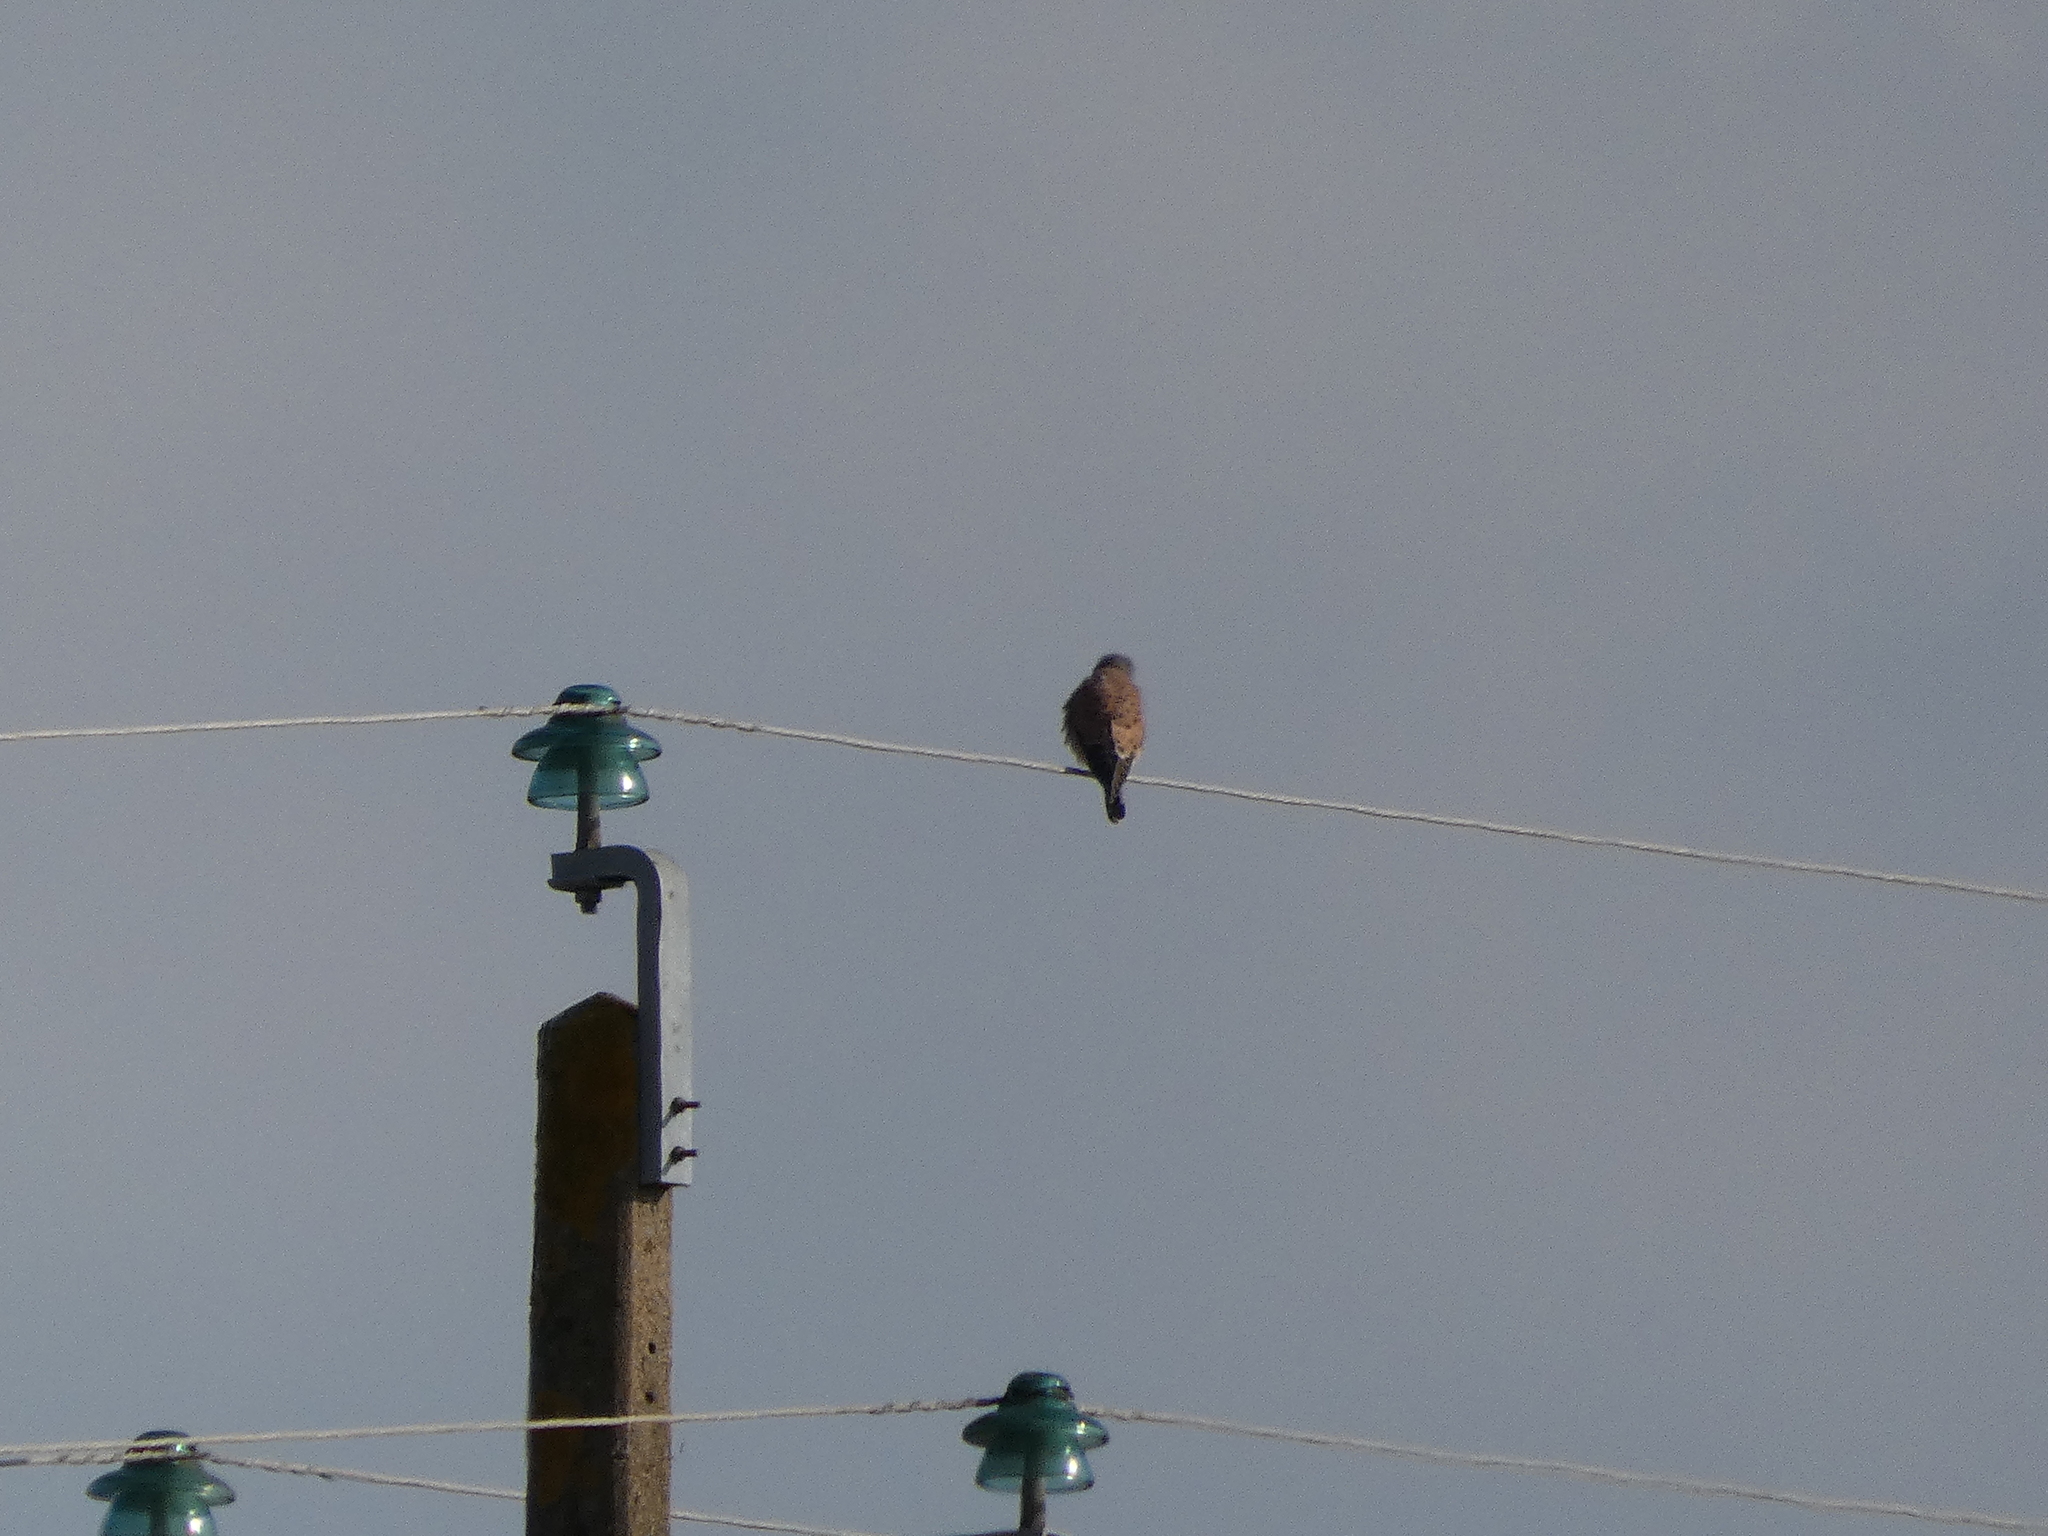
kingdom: Animalia
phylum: Chordata
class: Aves
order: Falconiformes
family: Falconidae
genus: Falco
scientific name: Falco tinnunculus
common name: Common kestrel
